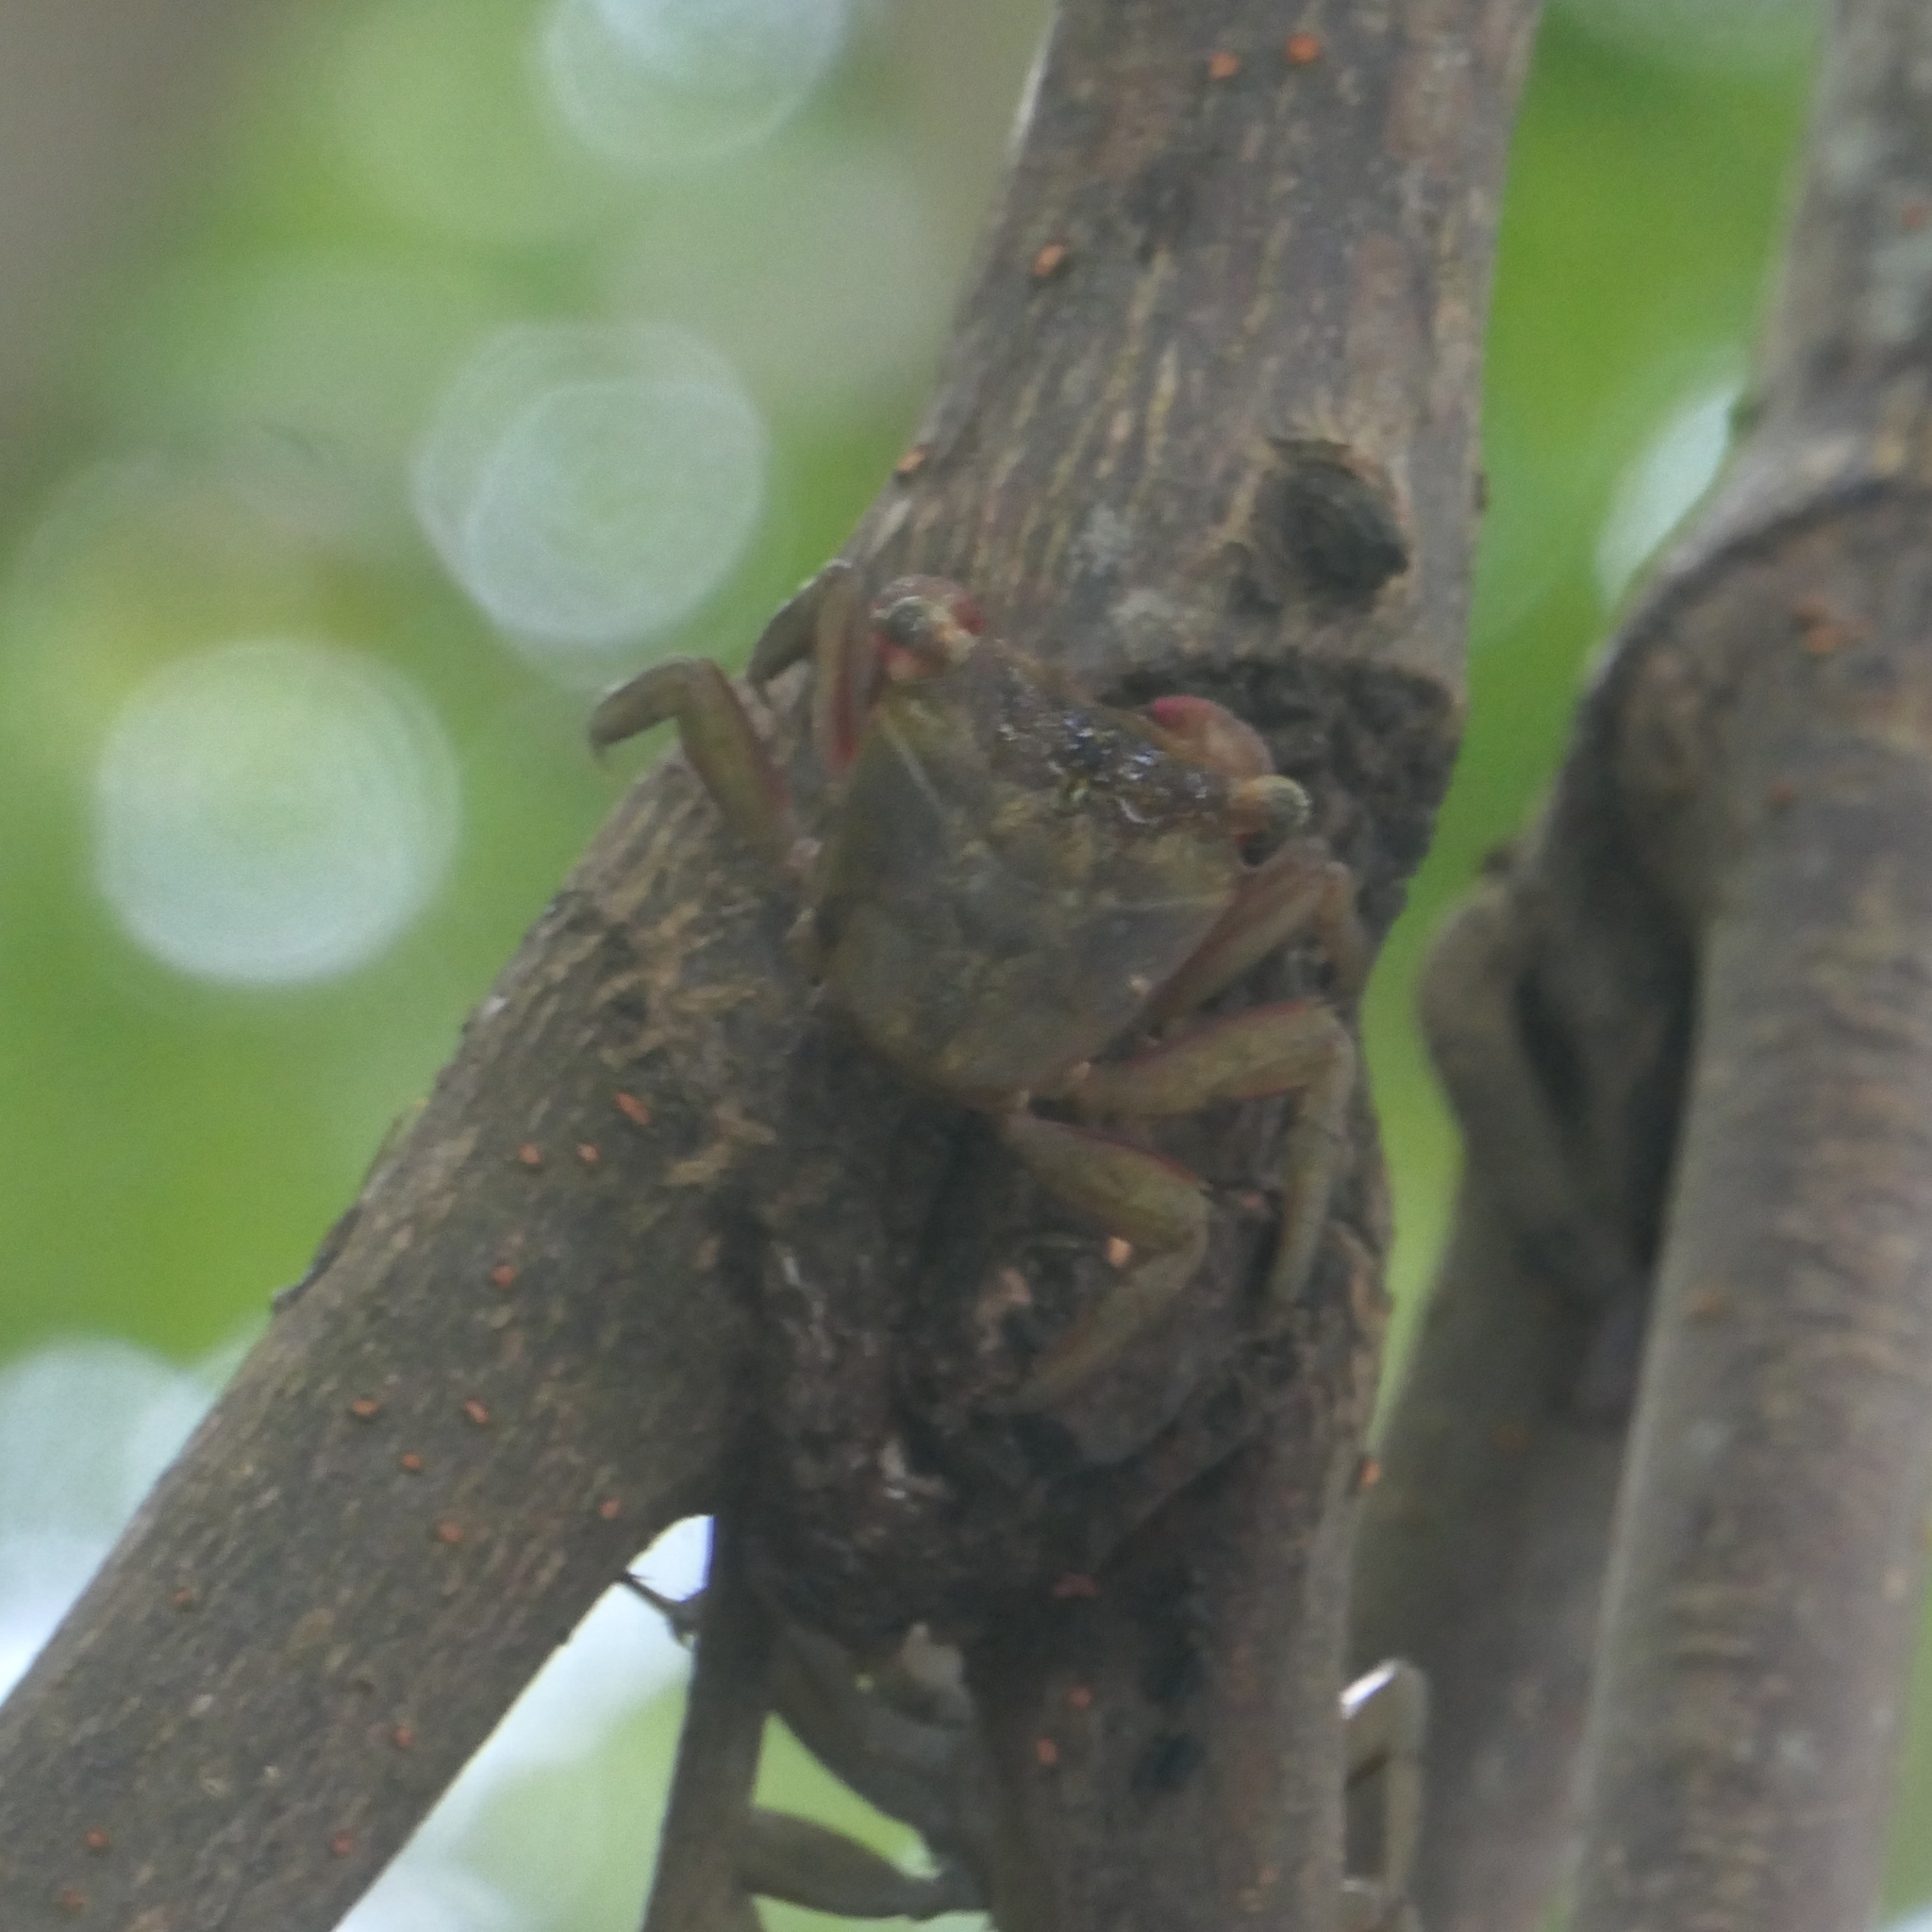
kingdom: Animalia
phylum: Arthropoda
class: Malacostraca
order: Decapoda
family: Sesarmidae
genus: Aratus
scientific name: Aratus pisonii
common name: Mangrove crab
